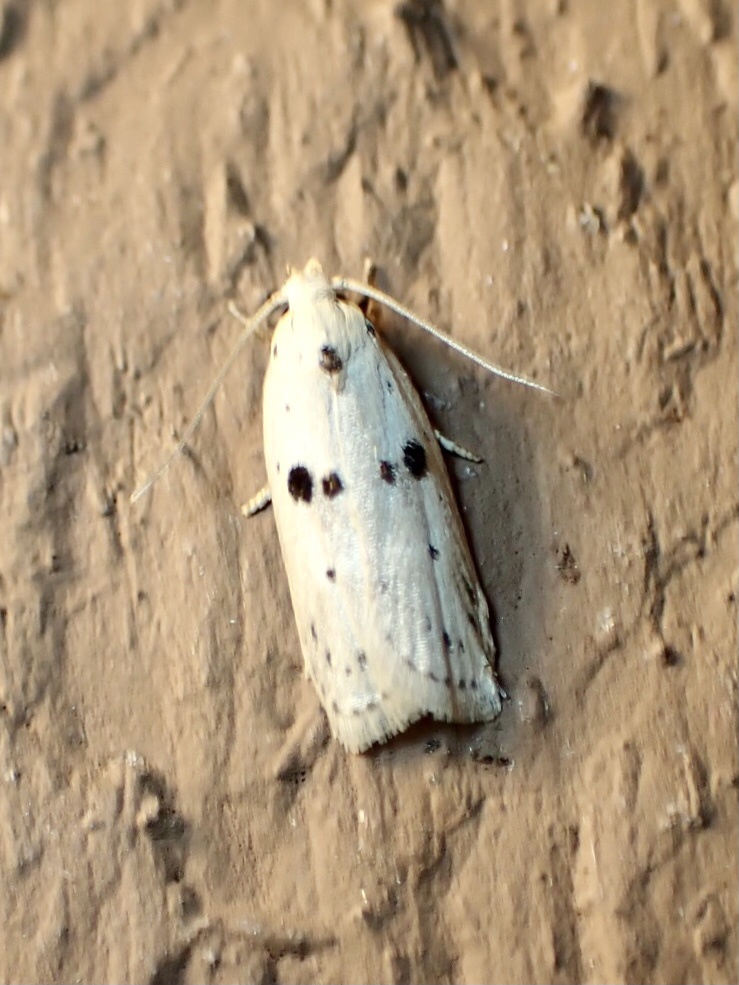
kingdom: Animalia
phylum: Arthropoda
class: Insecta
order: Lepidoptera
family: Peleopodidae
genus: Scythropiodes
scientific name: Scythropiodes issikii
